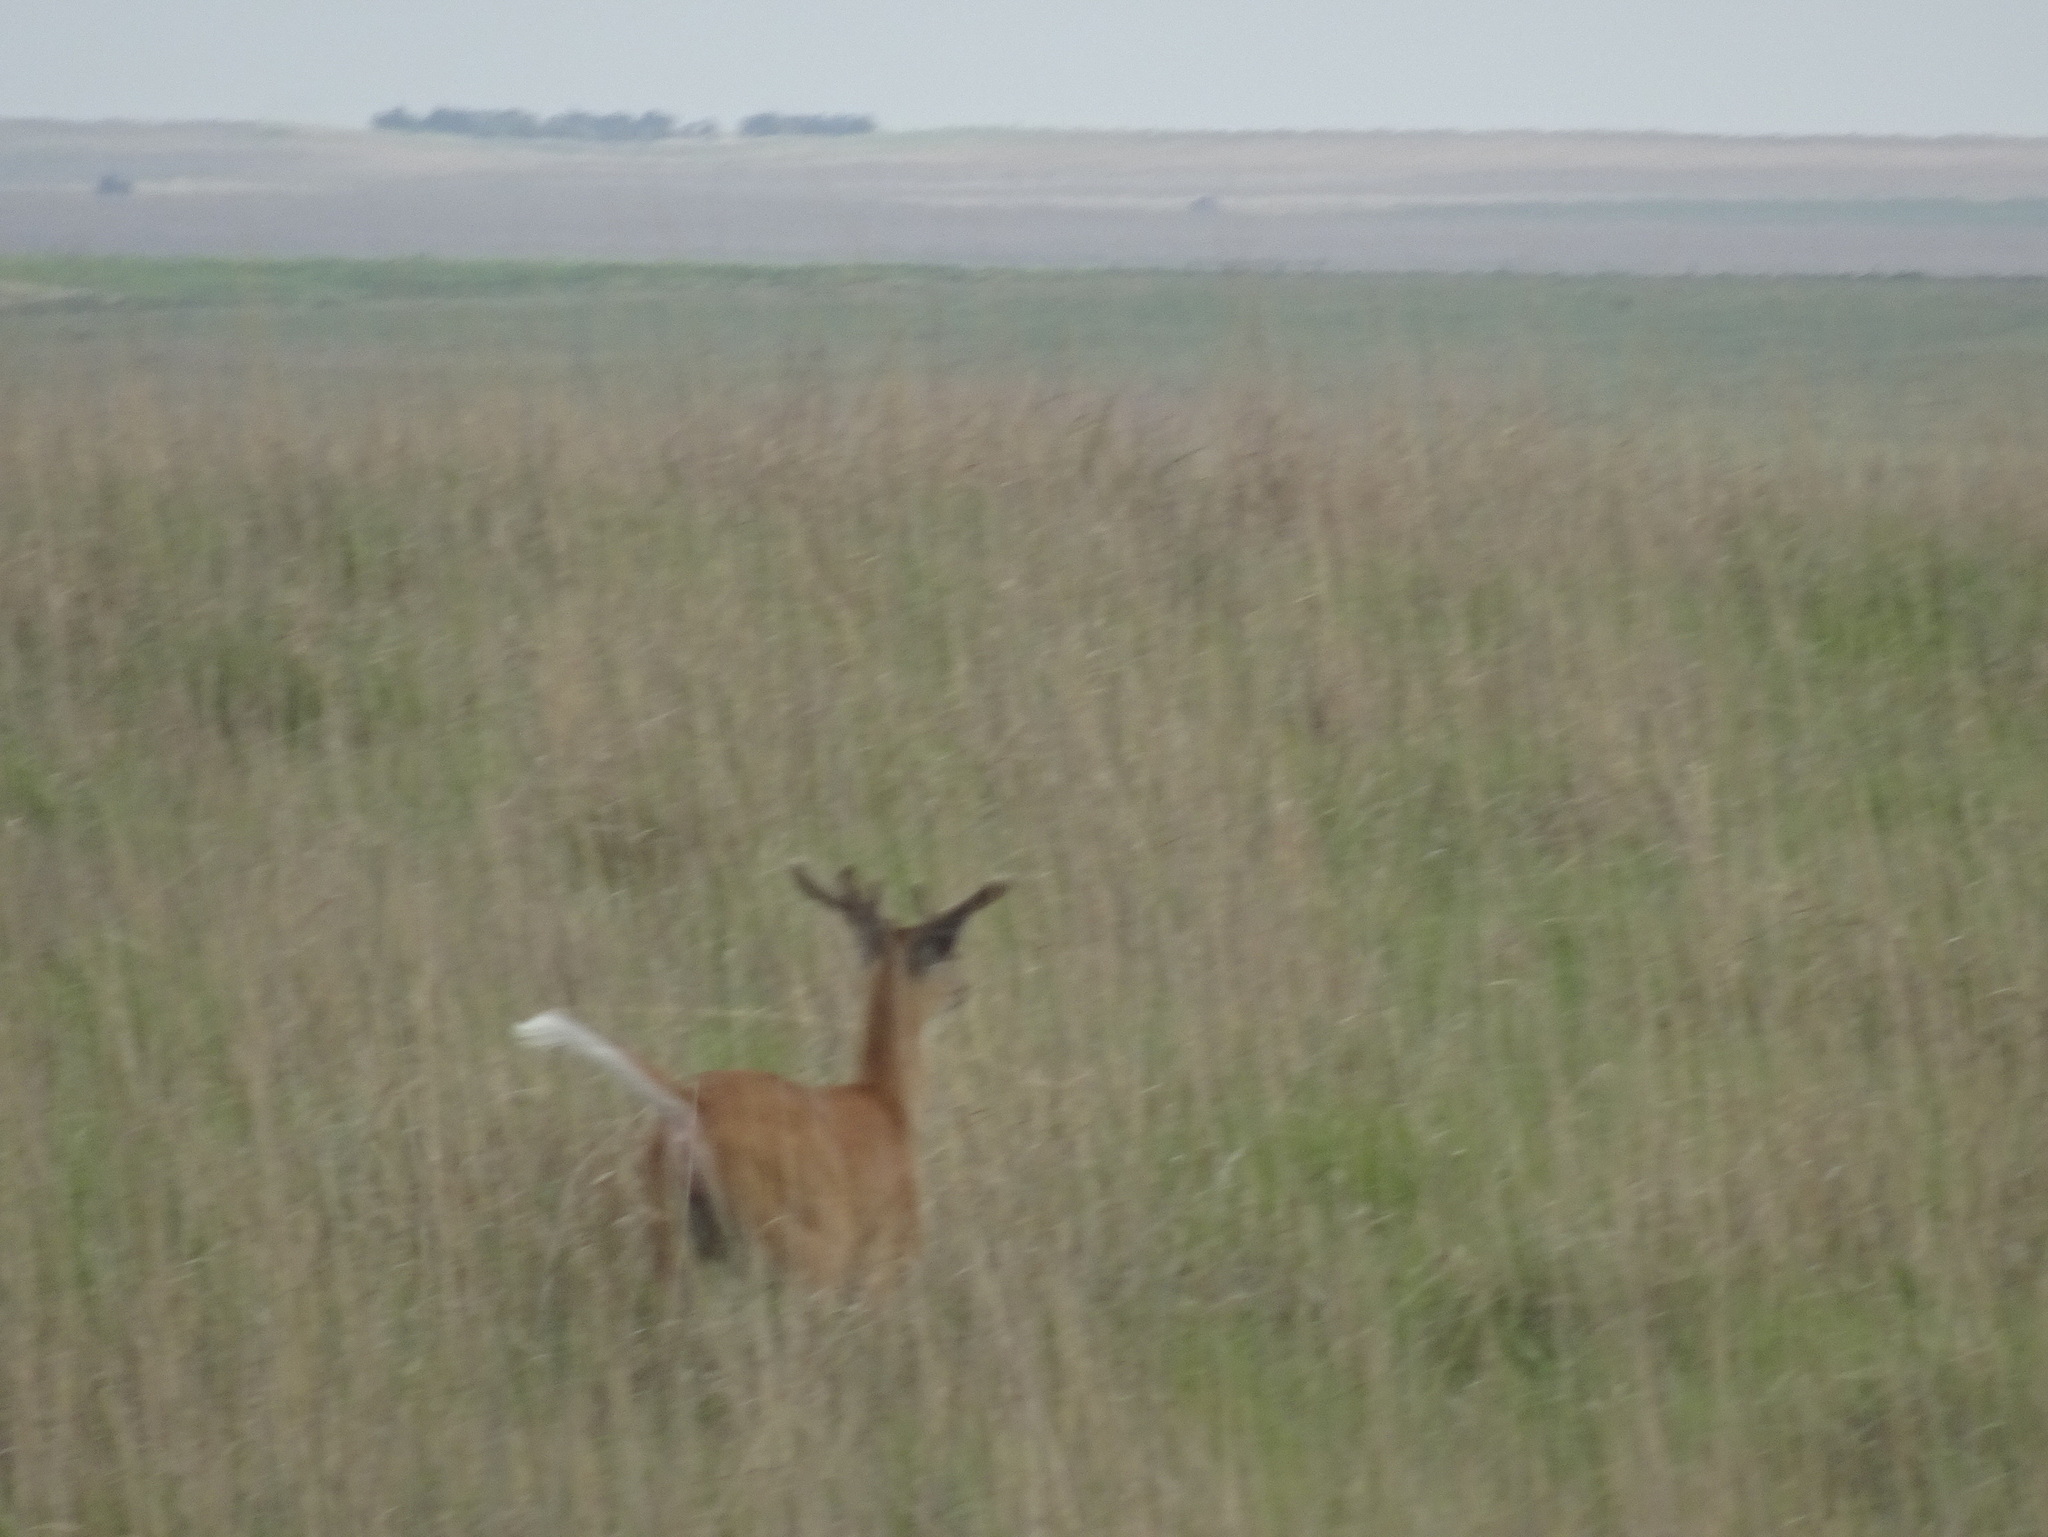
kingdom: Animalia
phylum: Chordata
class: Mammalia
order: Artiodactyla
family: Cervidae
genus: Odocoileus
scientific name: Odocoileus virginianus
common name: White-tailed deer
